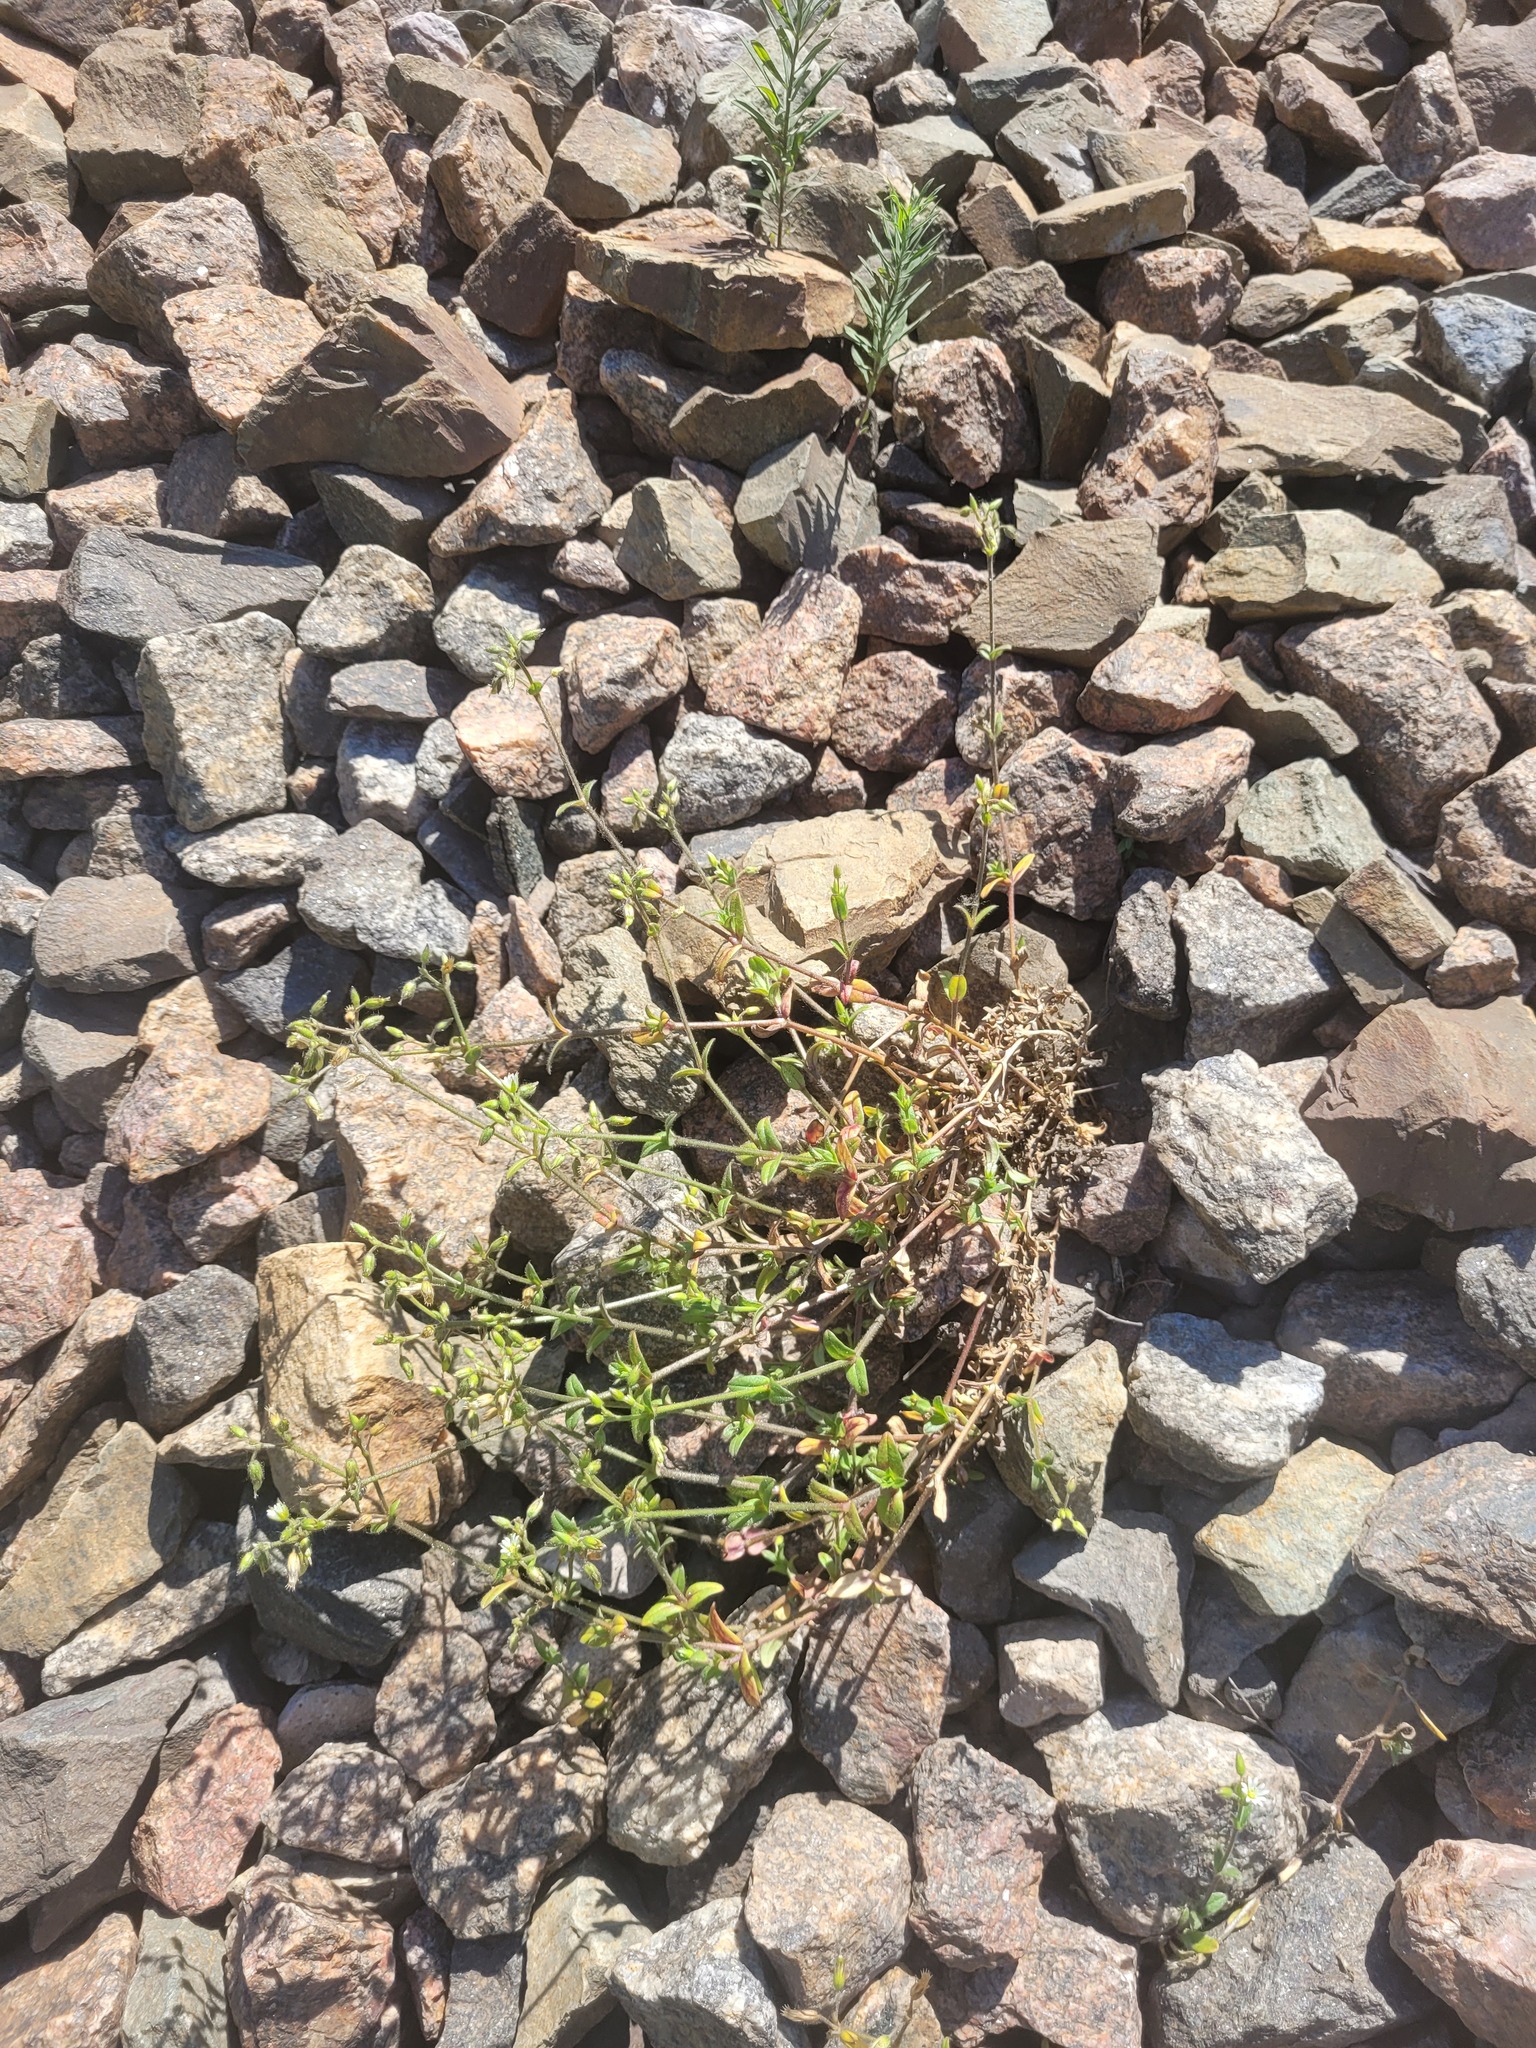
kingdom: Plantae
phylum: Tracheophyta
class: Magnoliopsida
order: Caryophyllales
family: Caryophyllaceae
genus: Cerastium
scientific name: Cerastium holosteoides
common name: Big chickweed
